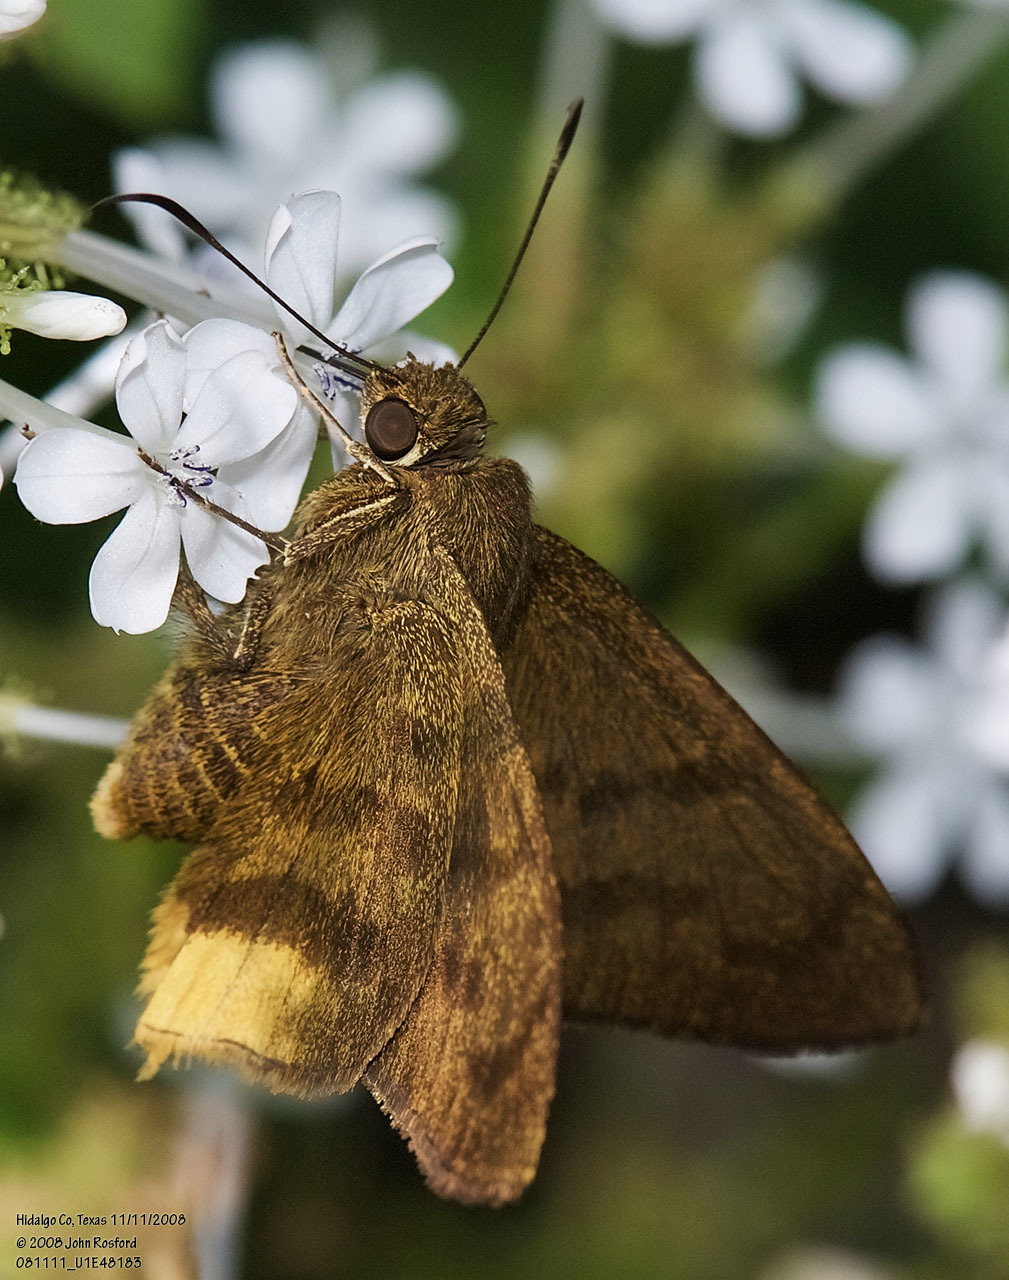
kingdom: Animalia
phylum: Arthropoda
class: Insecta
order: Lepidoptera
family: Hesperiidae
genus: Astraptes
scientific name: Astraptes anaphus
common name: Yellow-tipped flasher
